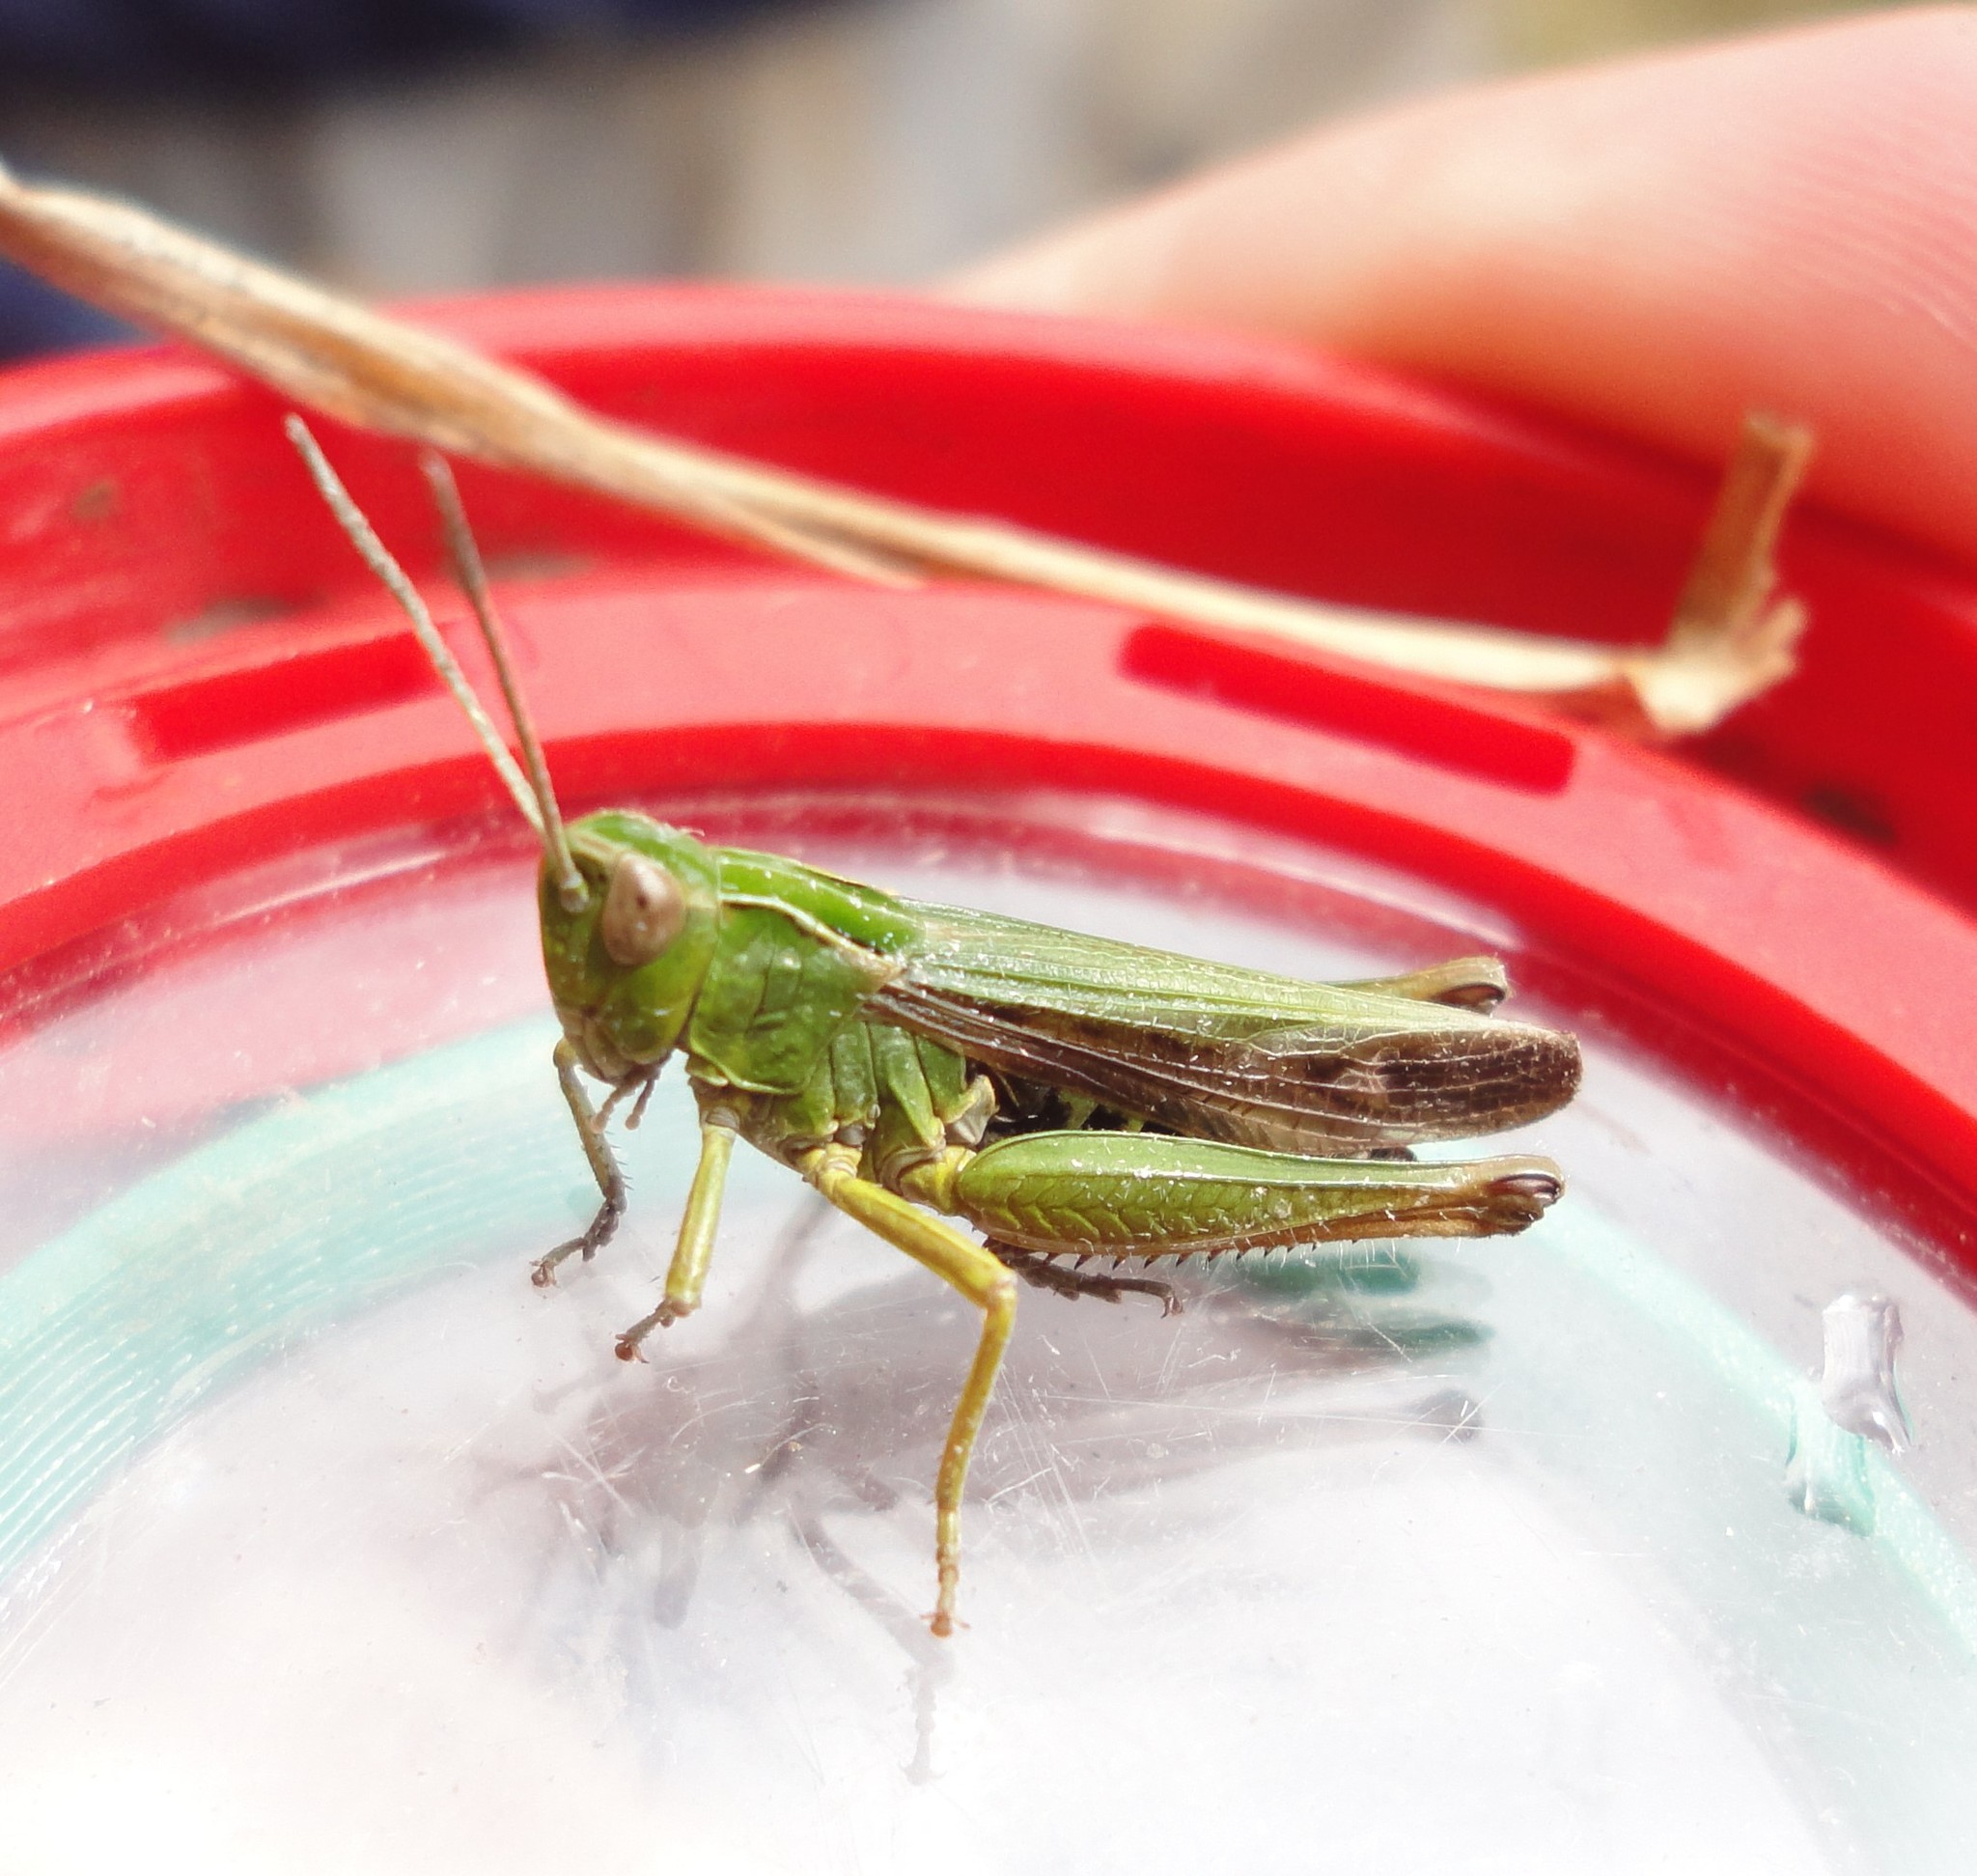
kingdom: Animalia
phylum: Arthropoda
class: Insecta
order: Orthoptera
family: Acrididae
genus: Omocestus
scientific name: Omocestus viridulus
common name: Common green grasshopper
